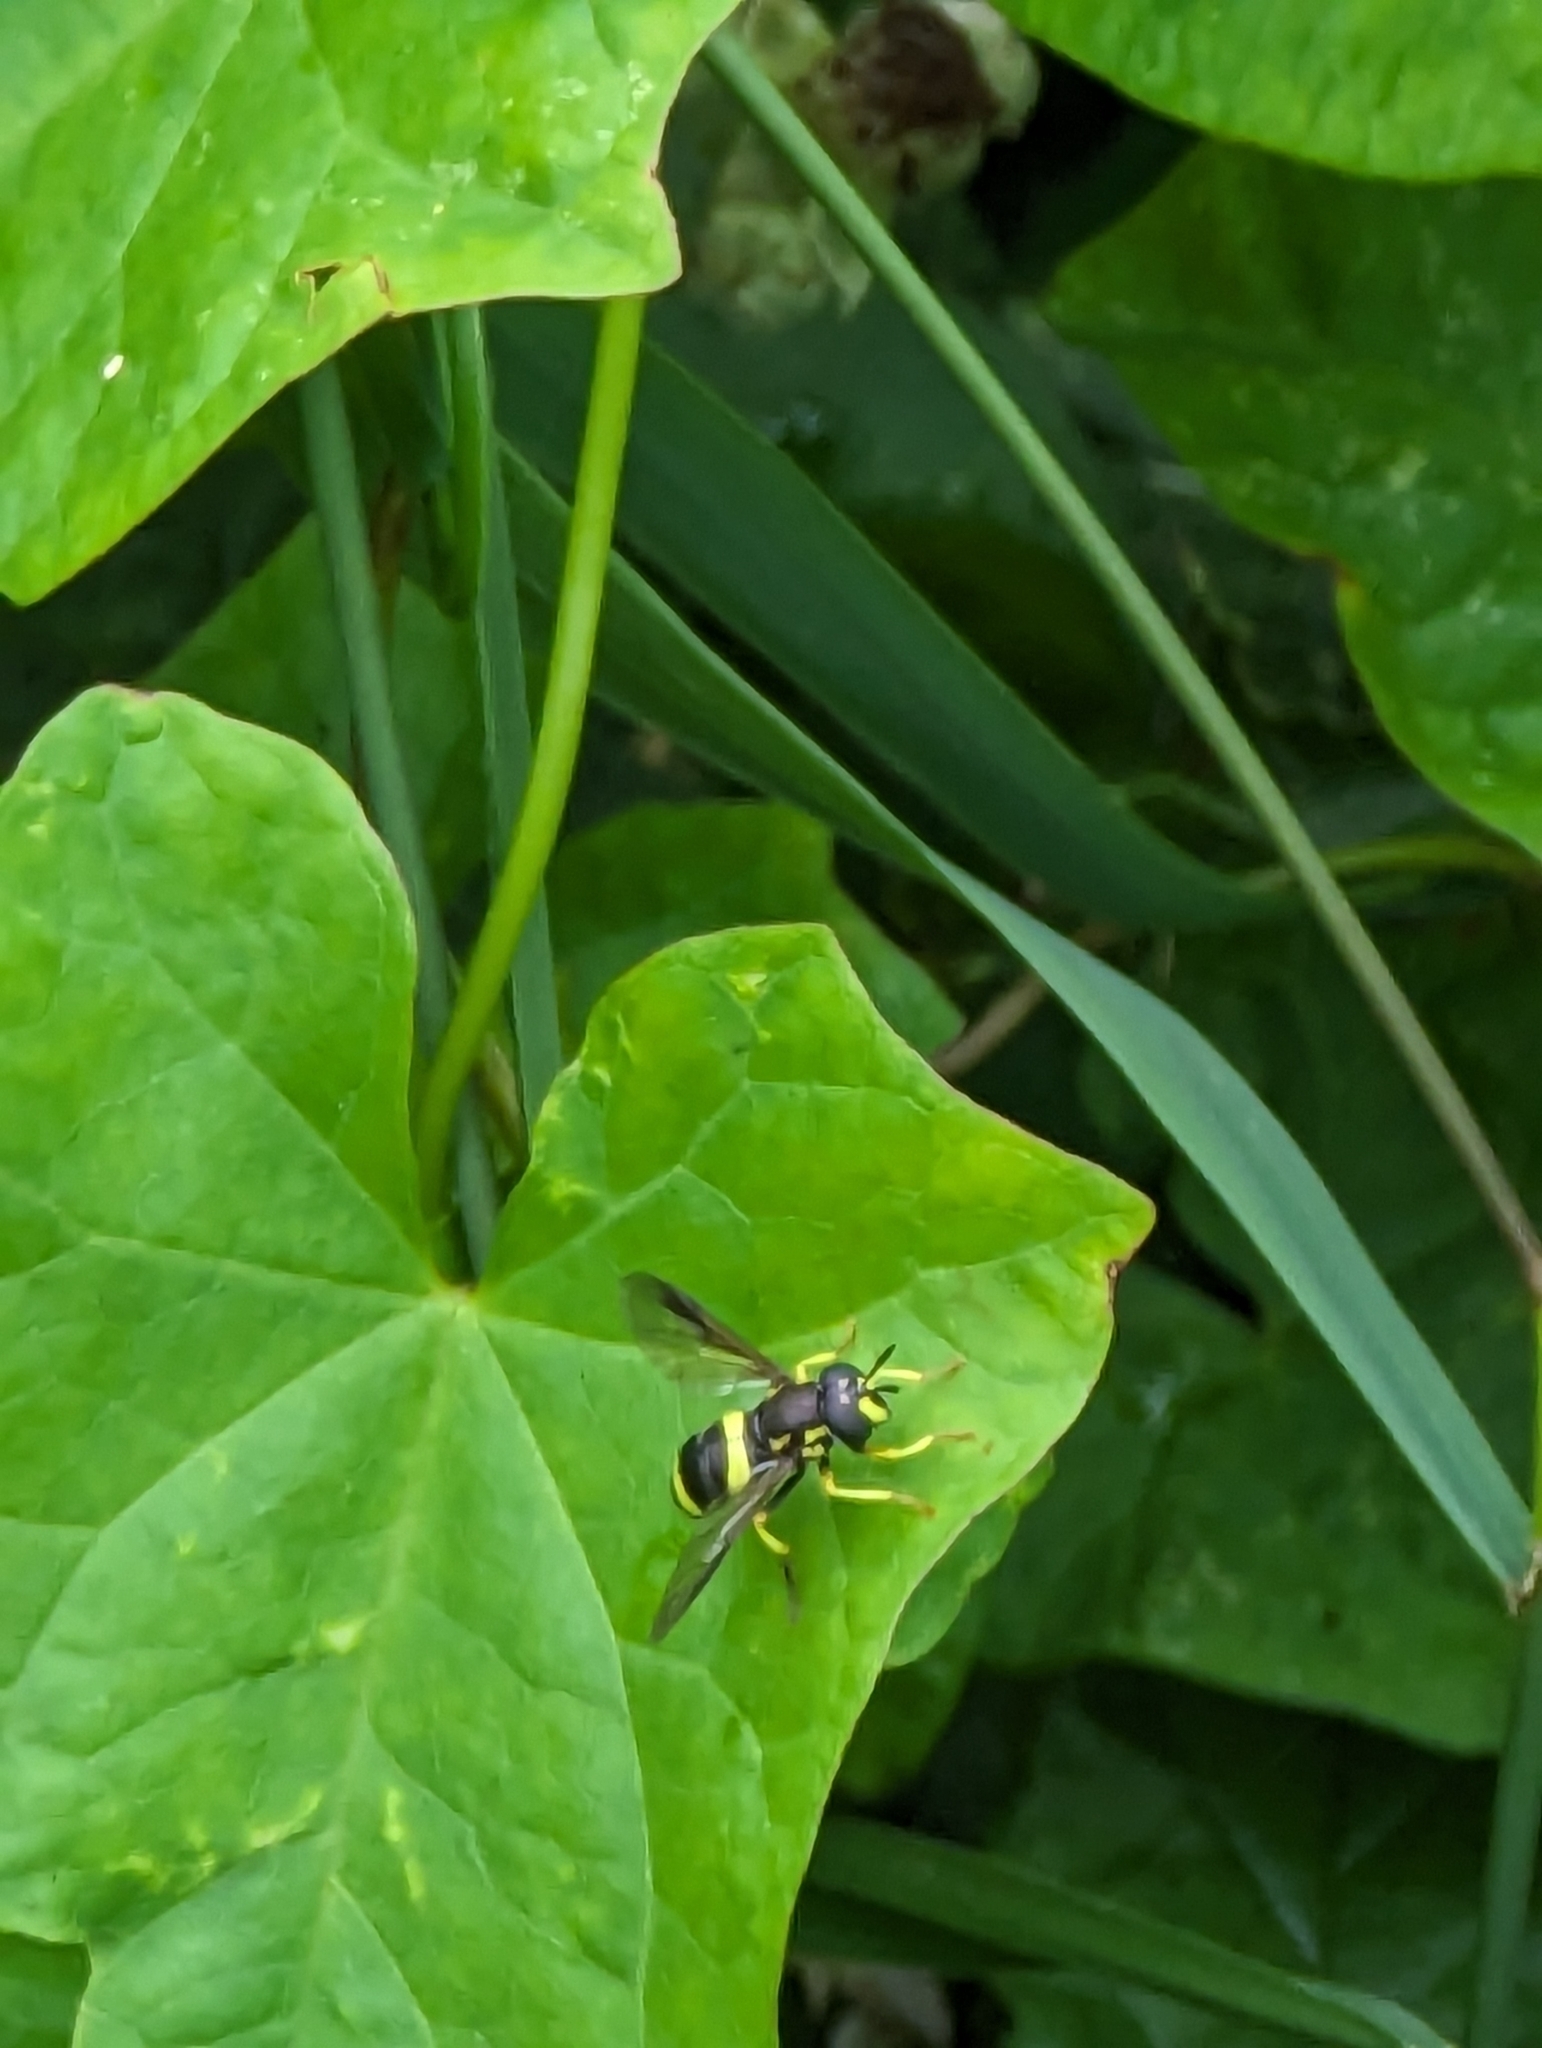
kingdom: Animalia
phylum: Arthropoda
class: Insecta
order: Diptera
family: Syrphidae
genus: Chrysotoxum
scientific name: Chrysotoxum bicincta
